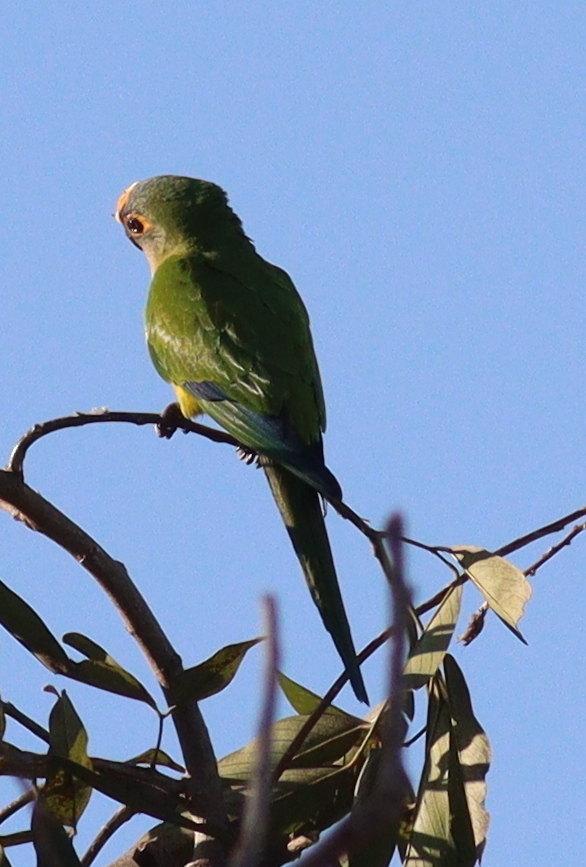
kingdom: Animalia
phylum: Chordata
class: Aves
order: Psittaciformes
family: Psittacidae
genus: Aratinga
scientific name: Aratinga aurea
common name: Peach-fronted parakeet
